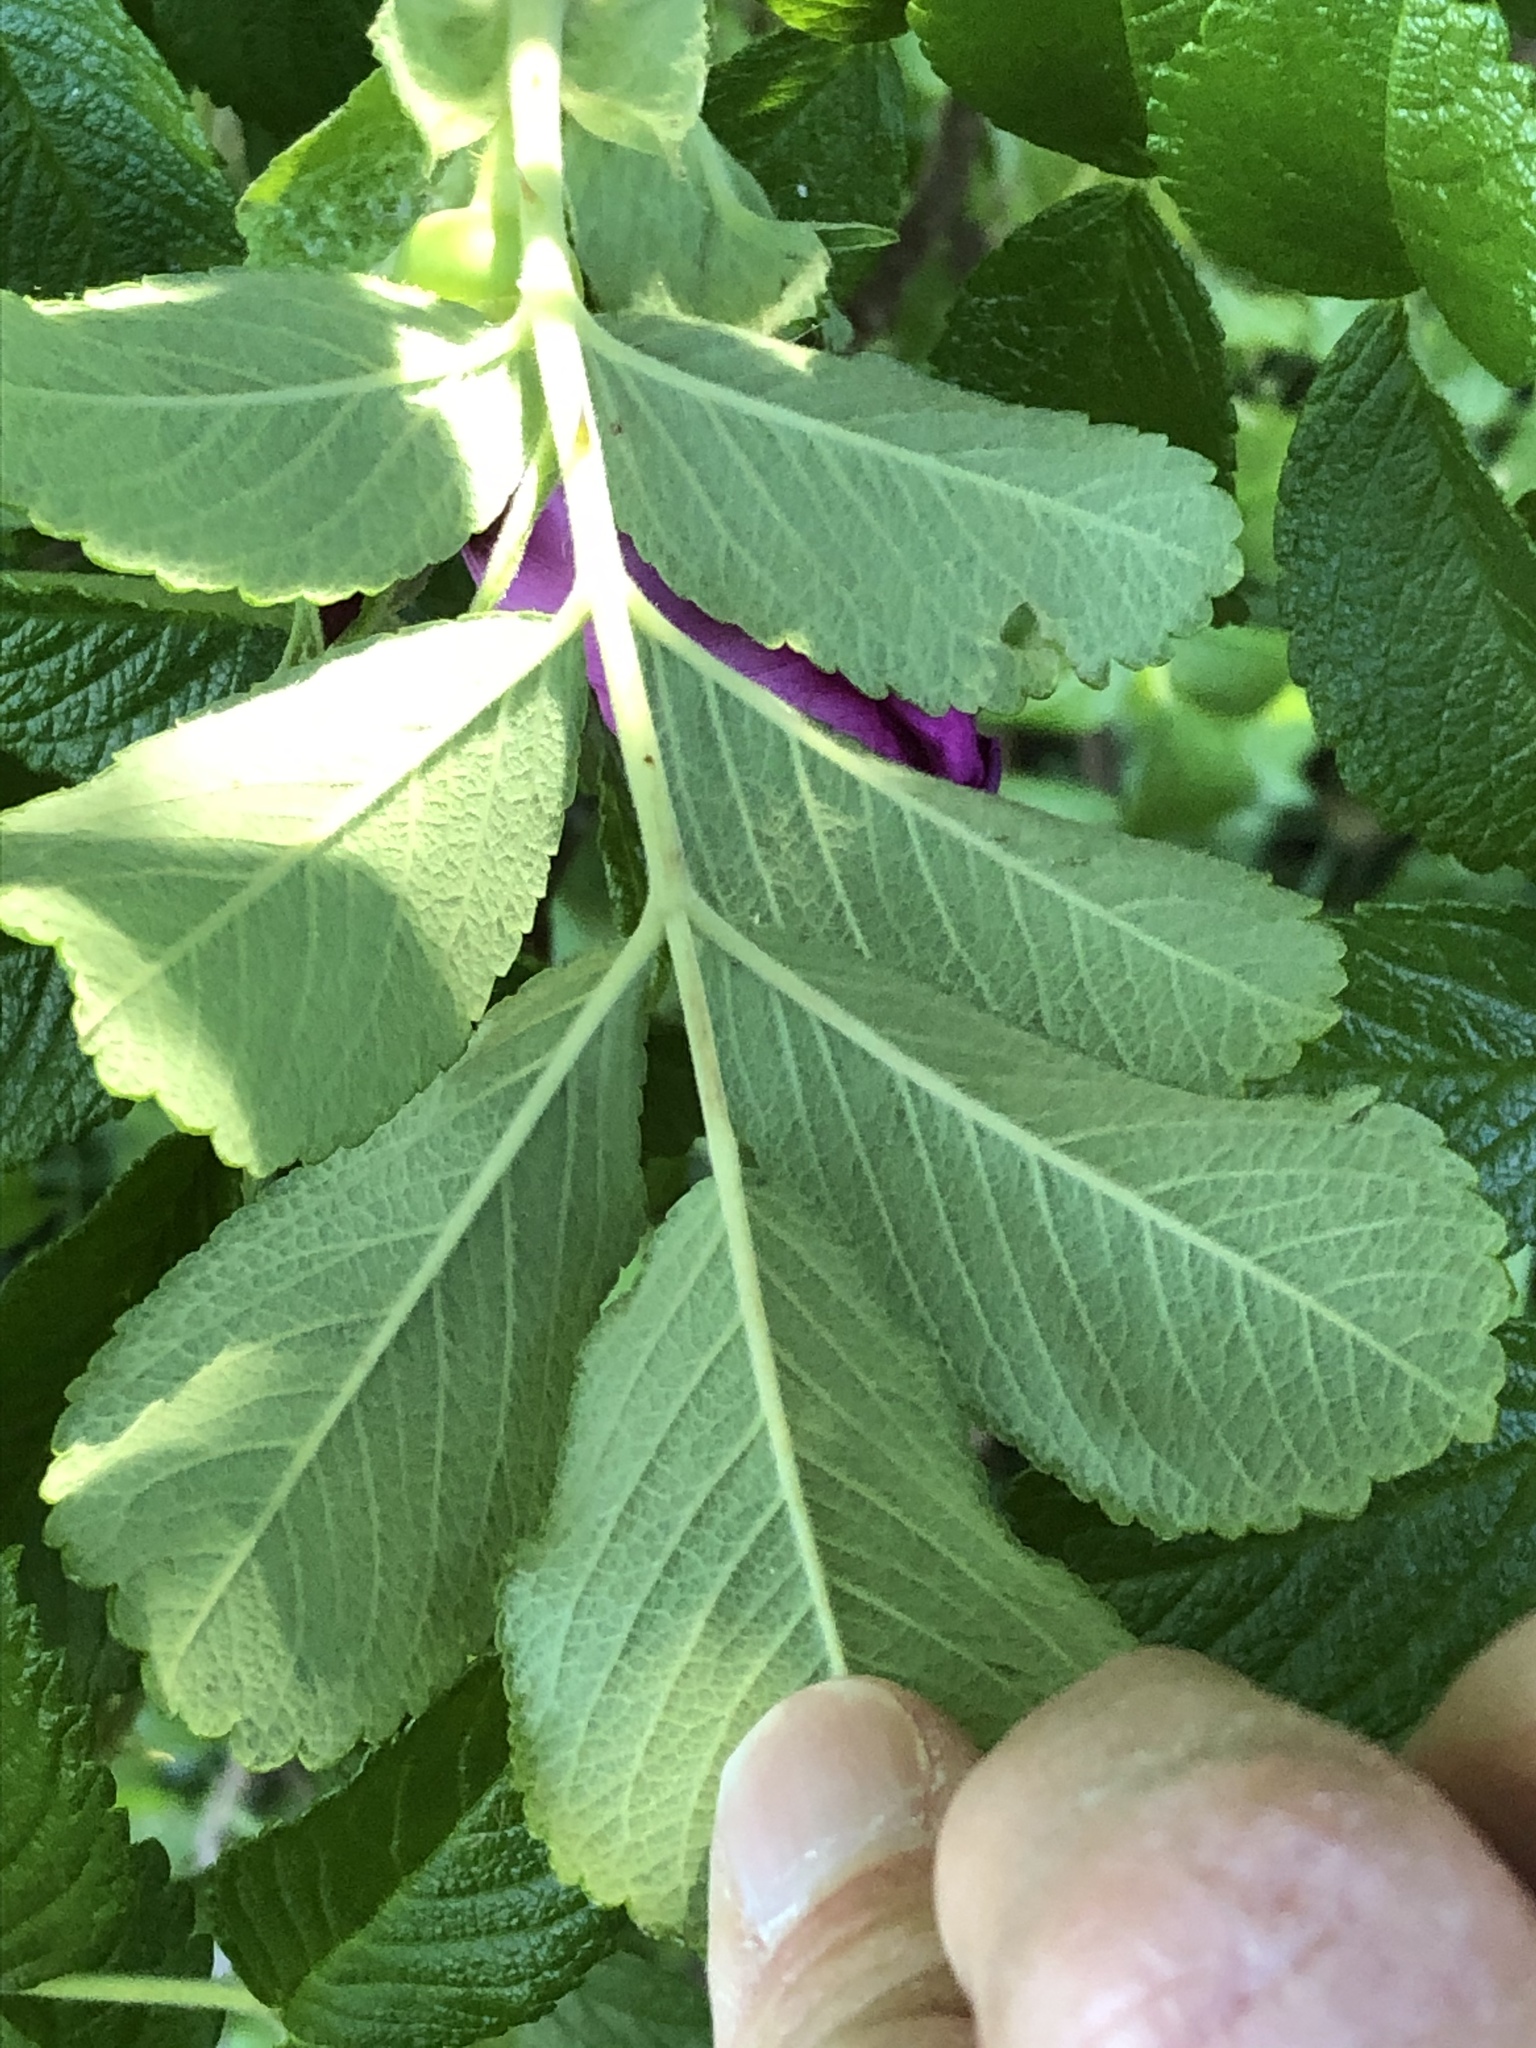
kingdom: Plantae
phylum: Tracheophyta
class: Magnoliopsida
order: Rosales
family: Rosaceae
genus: Rosa
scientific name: Rosa rugosa
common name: Japanese rose
